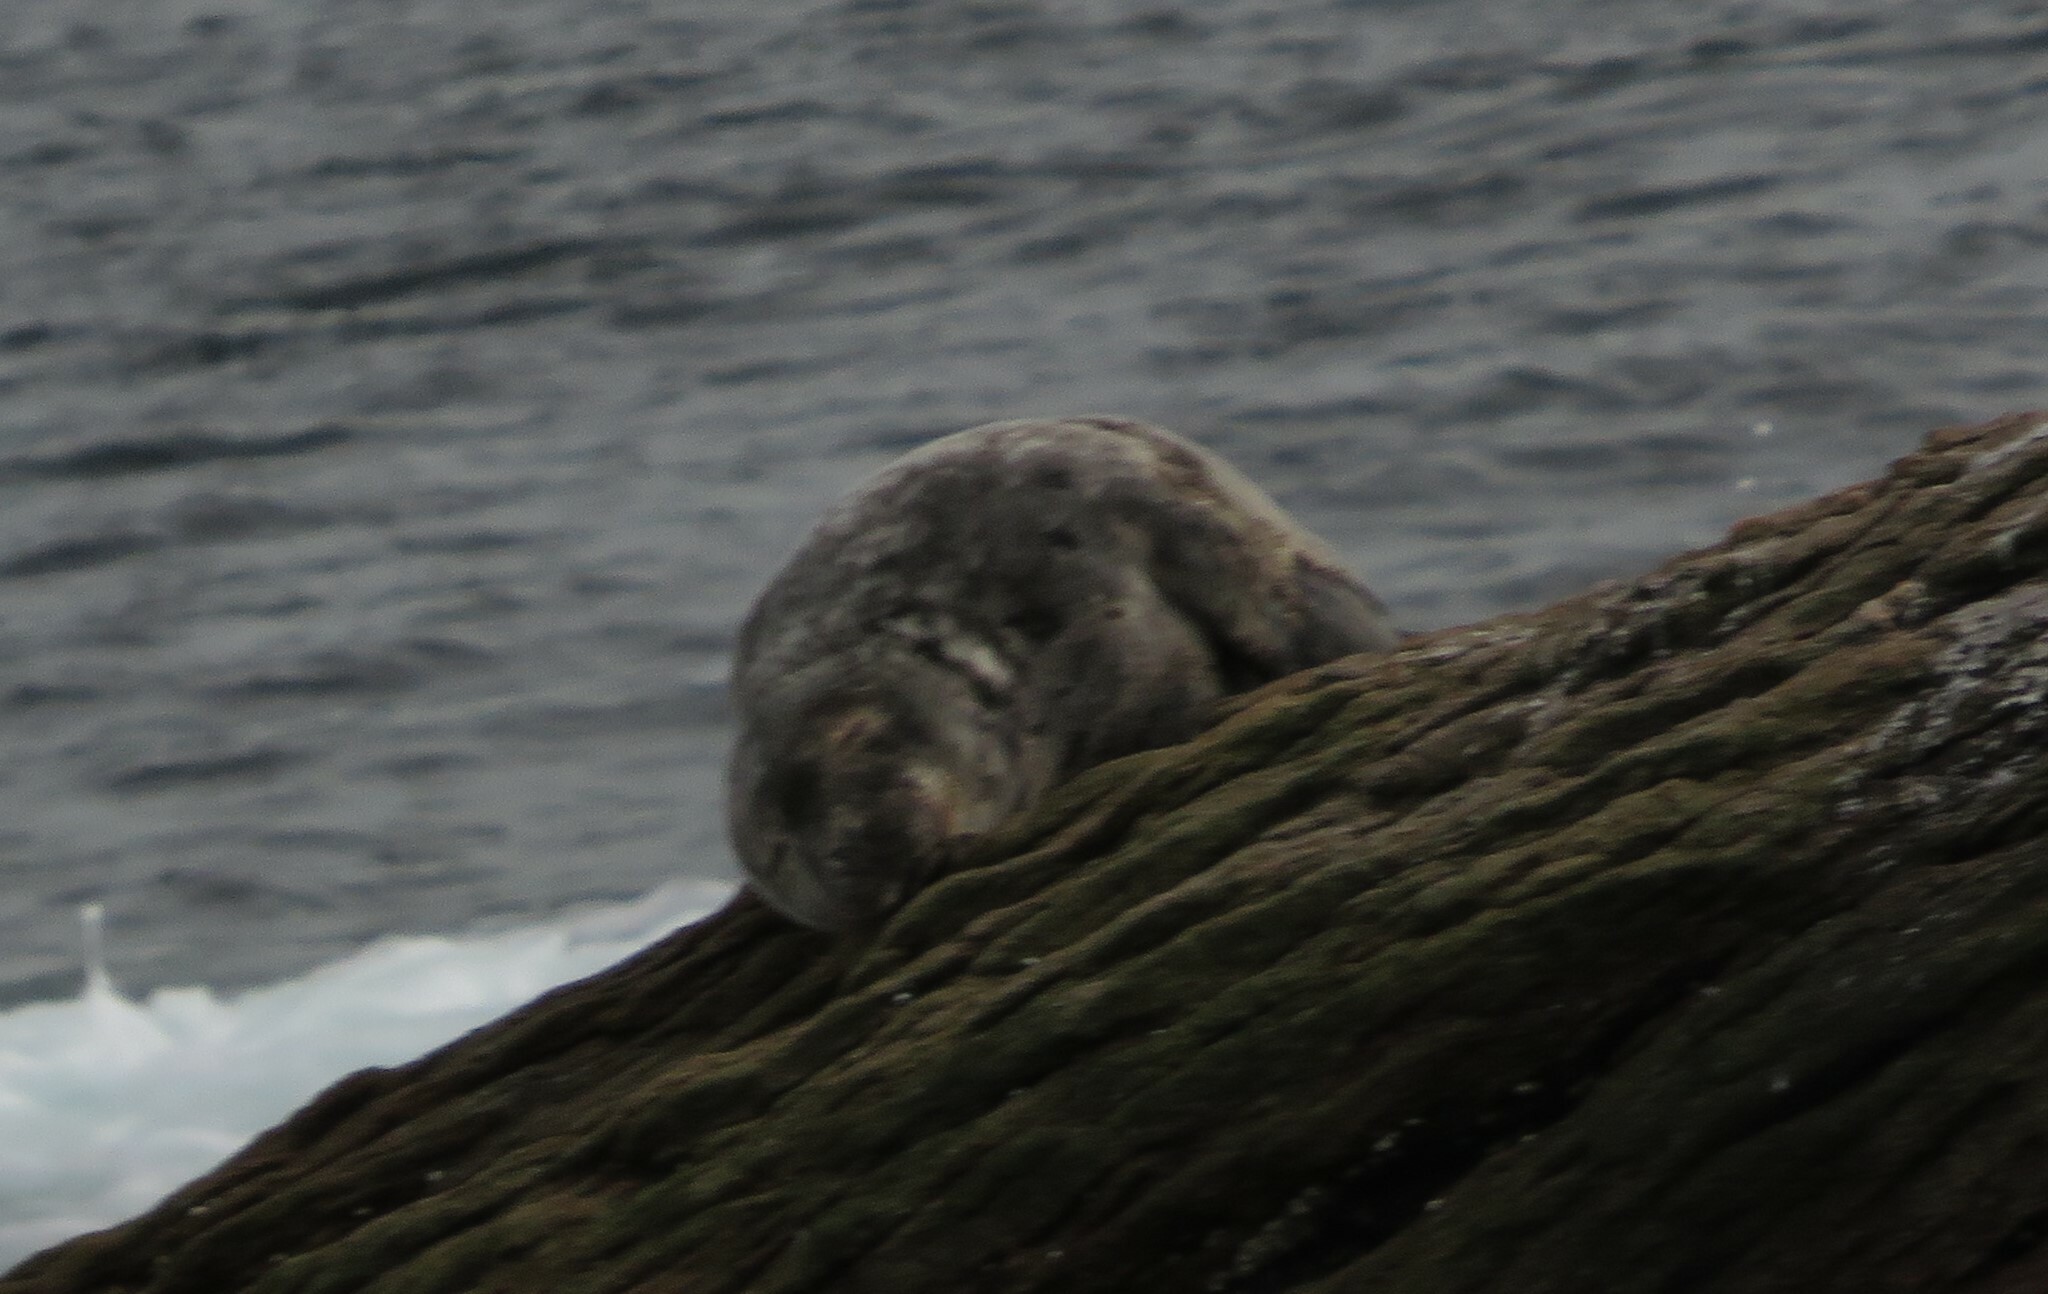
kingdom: Animalia
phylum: Chordata
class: Mammalia
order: Carnivora
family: Phocidae
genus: Halichoerus
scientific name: Halichoerus grypus
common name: Grey seal
